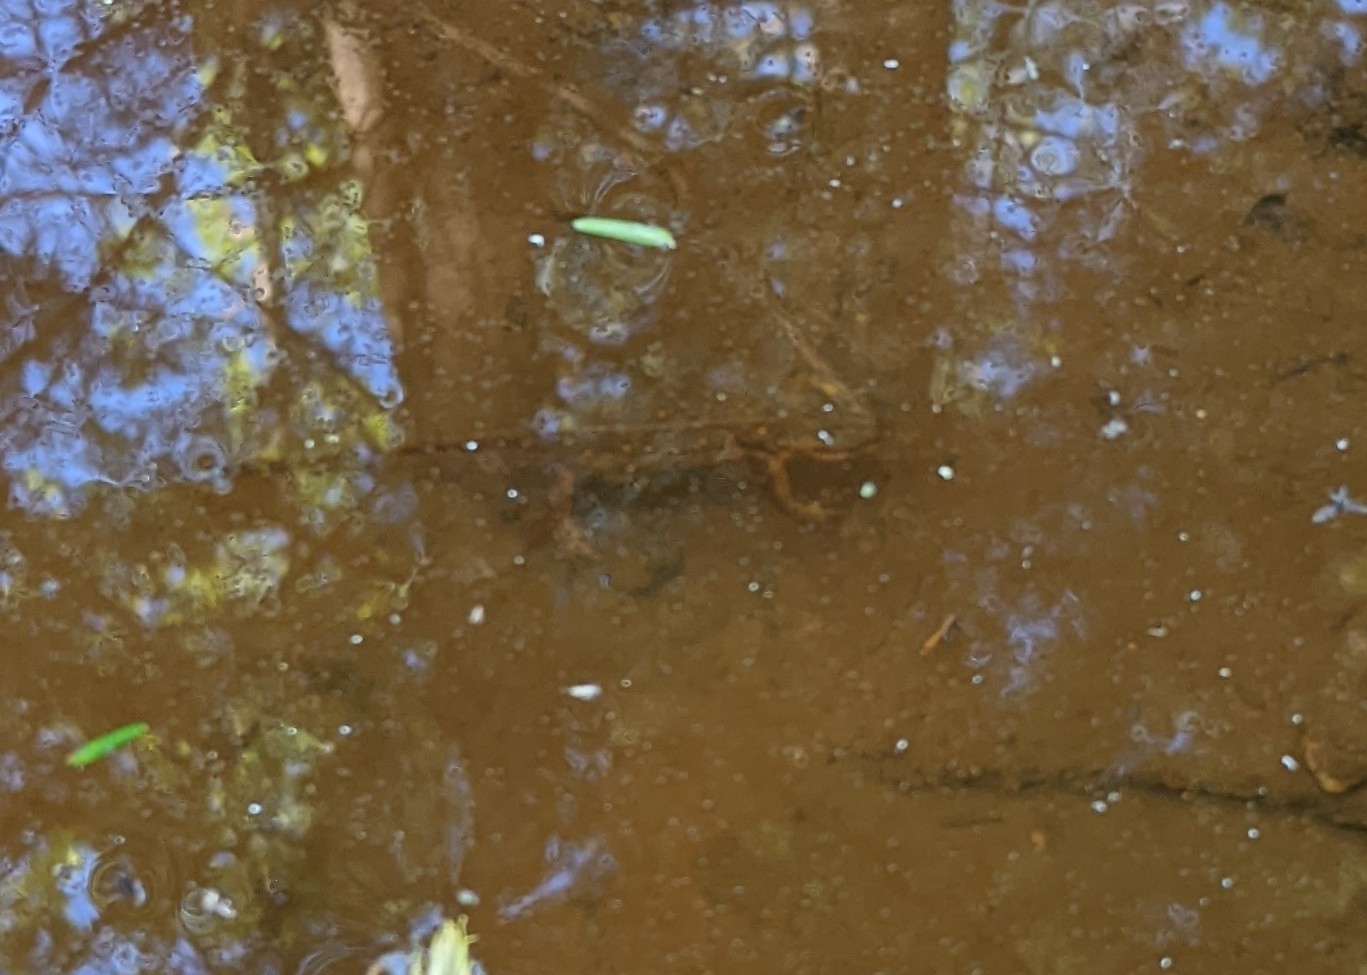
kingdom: Animalia
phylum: Chordata
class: Amphibia
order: Caudata
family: Salamandridae
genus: Notophthalmus
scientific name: Notophthalmus viridescens
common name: Eastern newt
